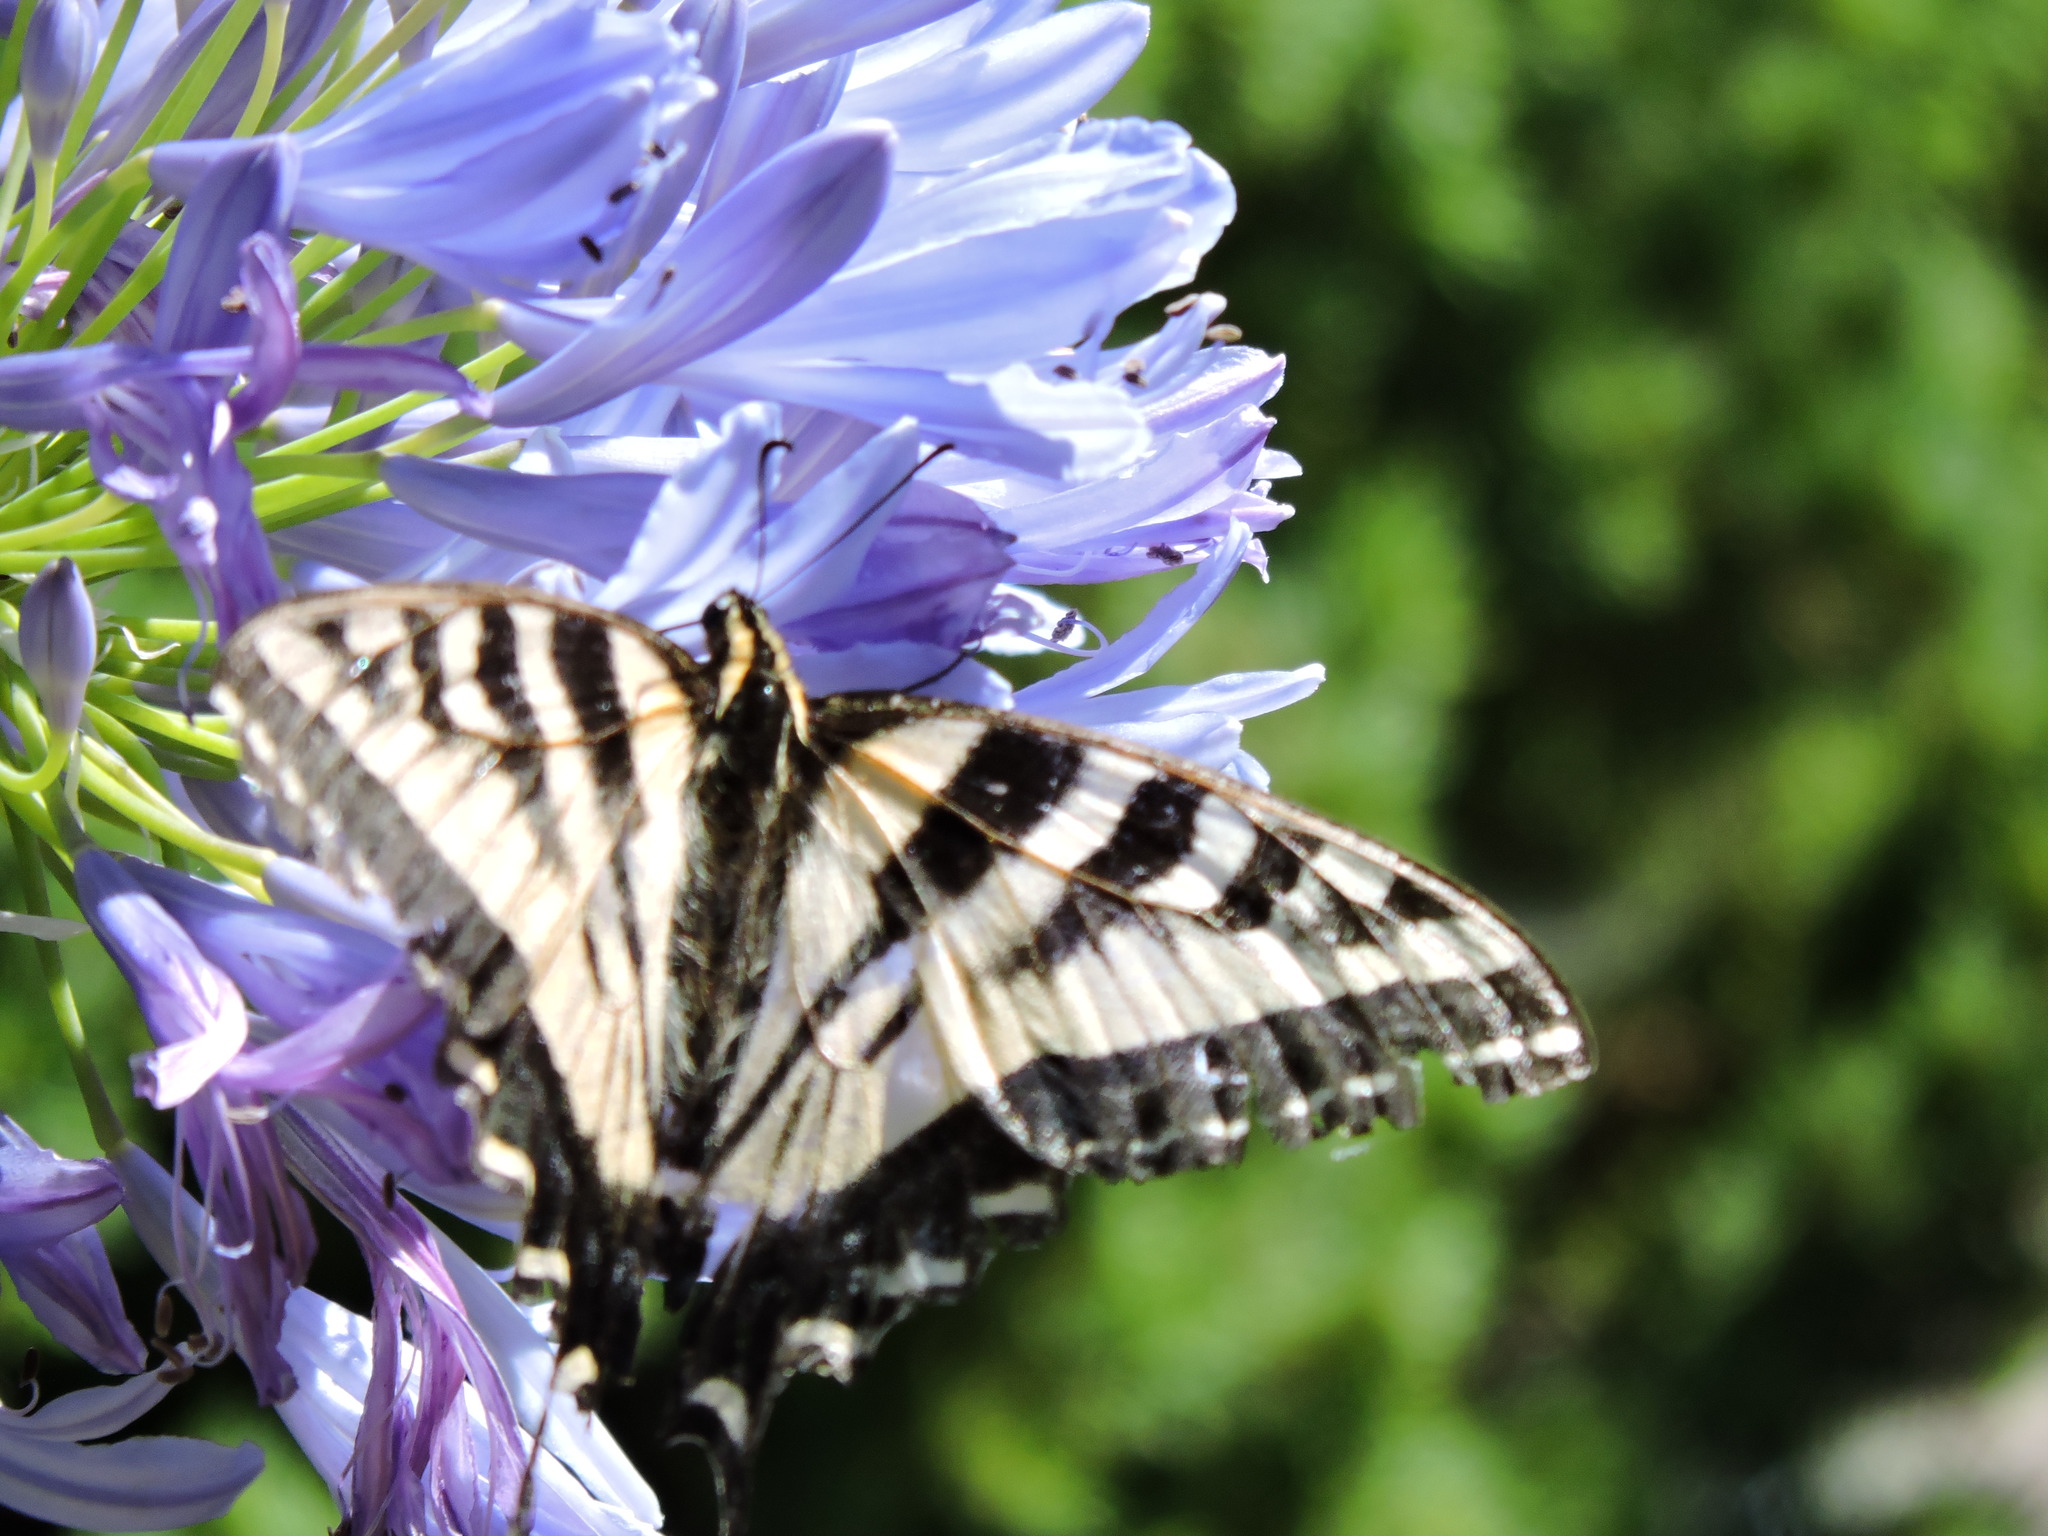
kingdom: Animalia
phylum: Arthropoda
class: Insecta
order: Lepidoptera
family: Papilionidae
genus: Papilio
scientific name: Papilio rutulus
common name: Western tiger swallowtail
